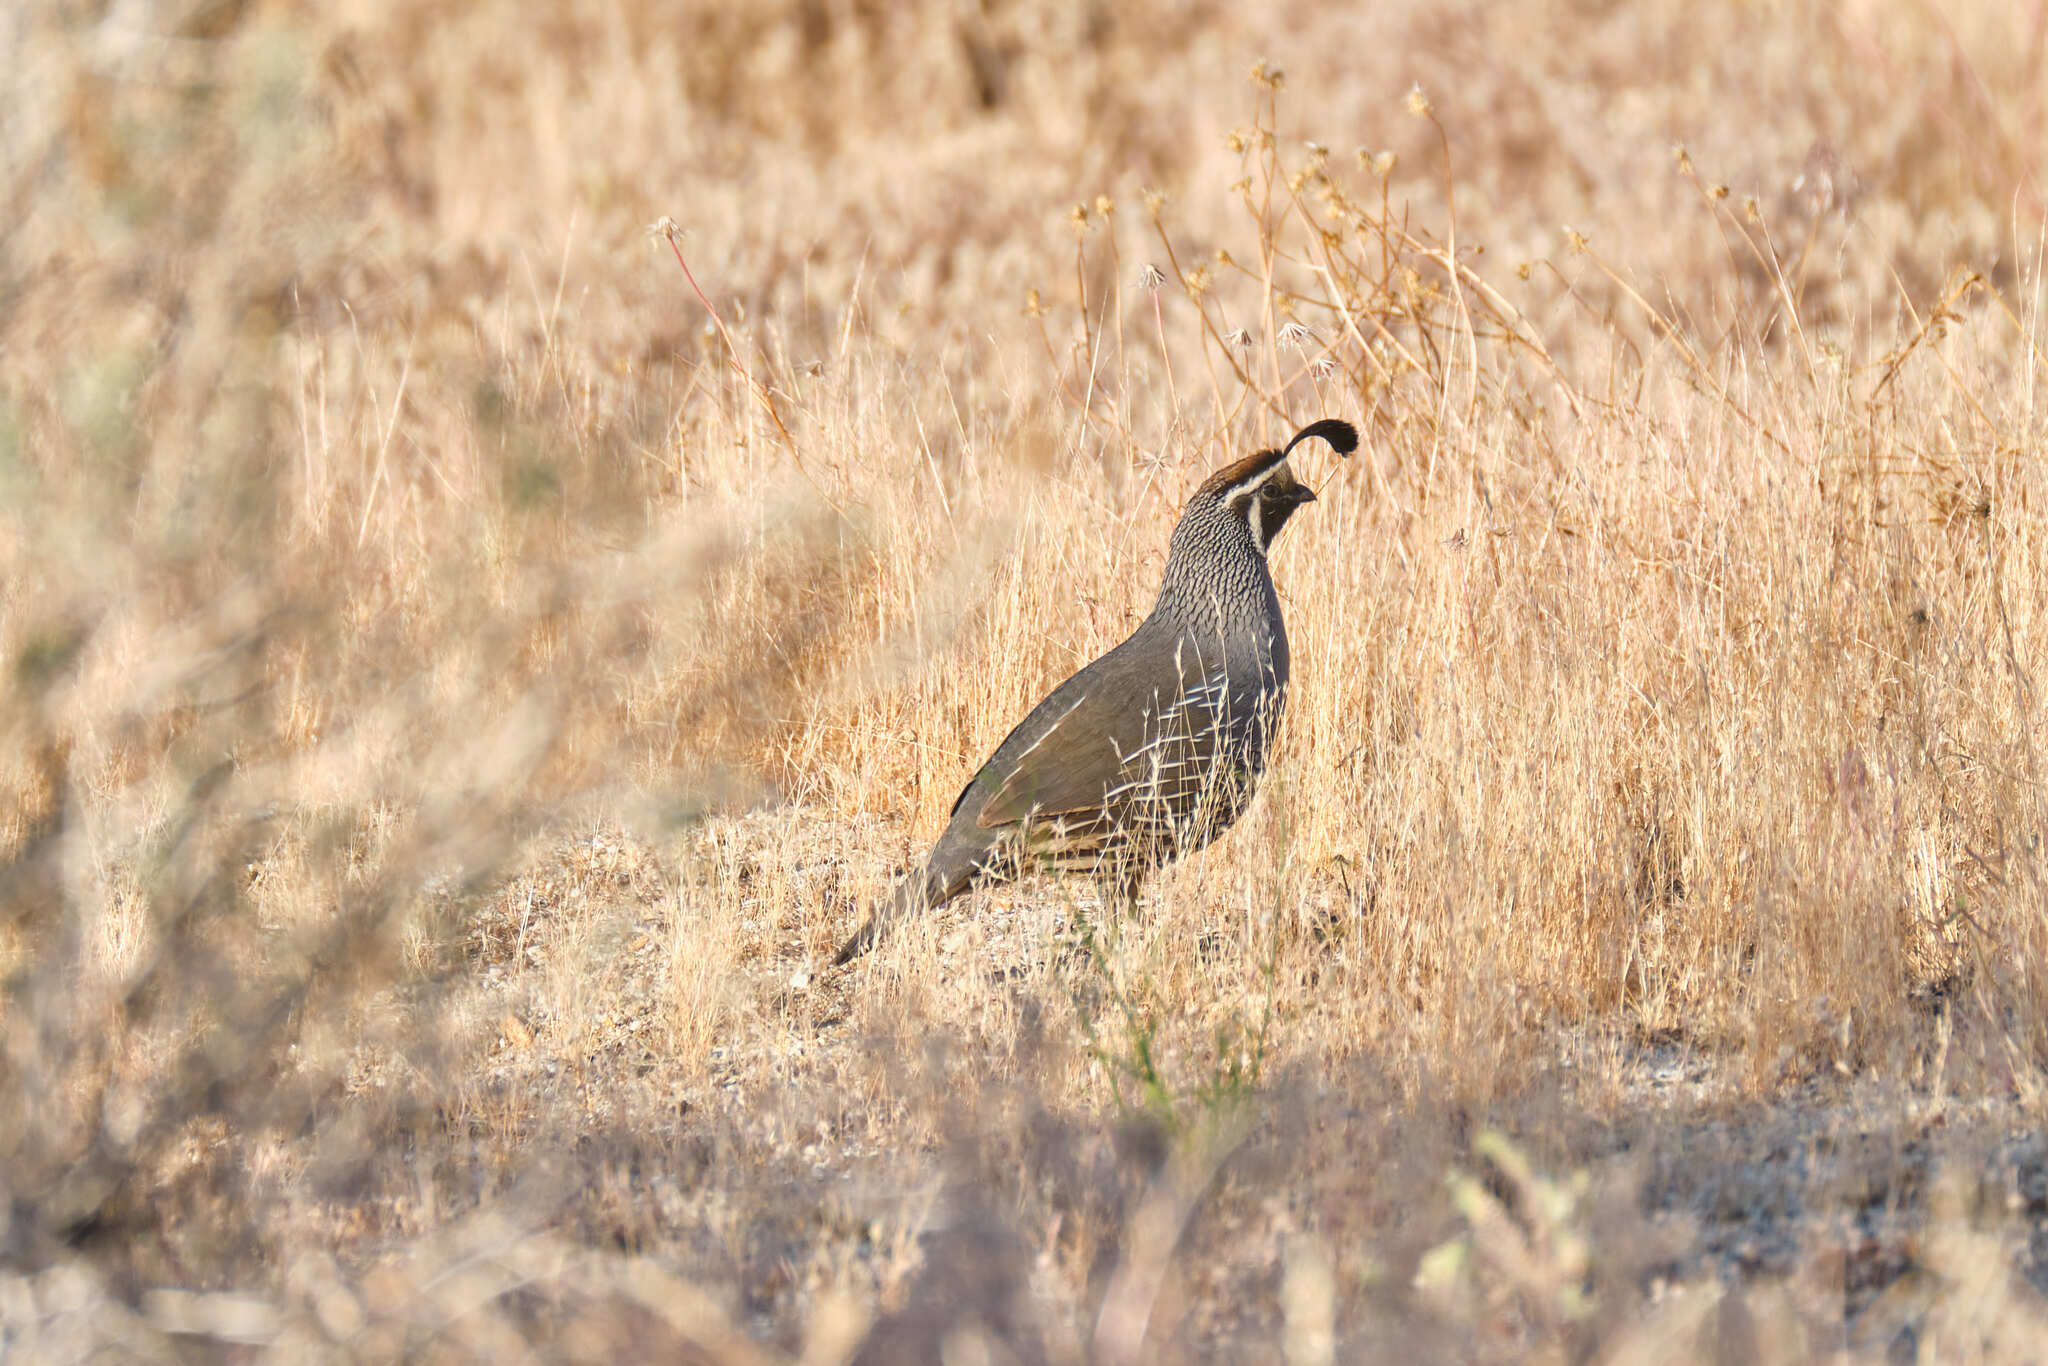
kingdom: Animalia
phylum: Chordata
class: Aves
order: Galliformes
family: Odontophoridae
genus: Callipepla
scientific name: Callipepla californica
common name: California quail
